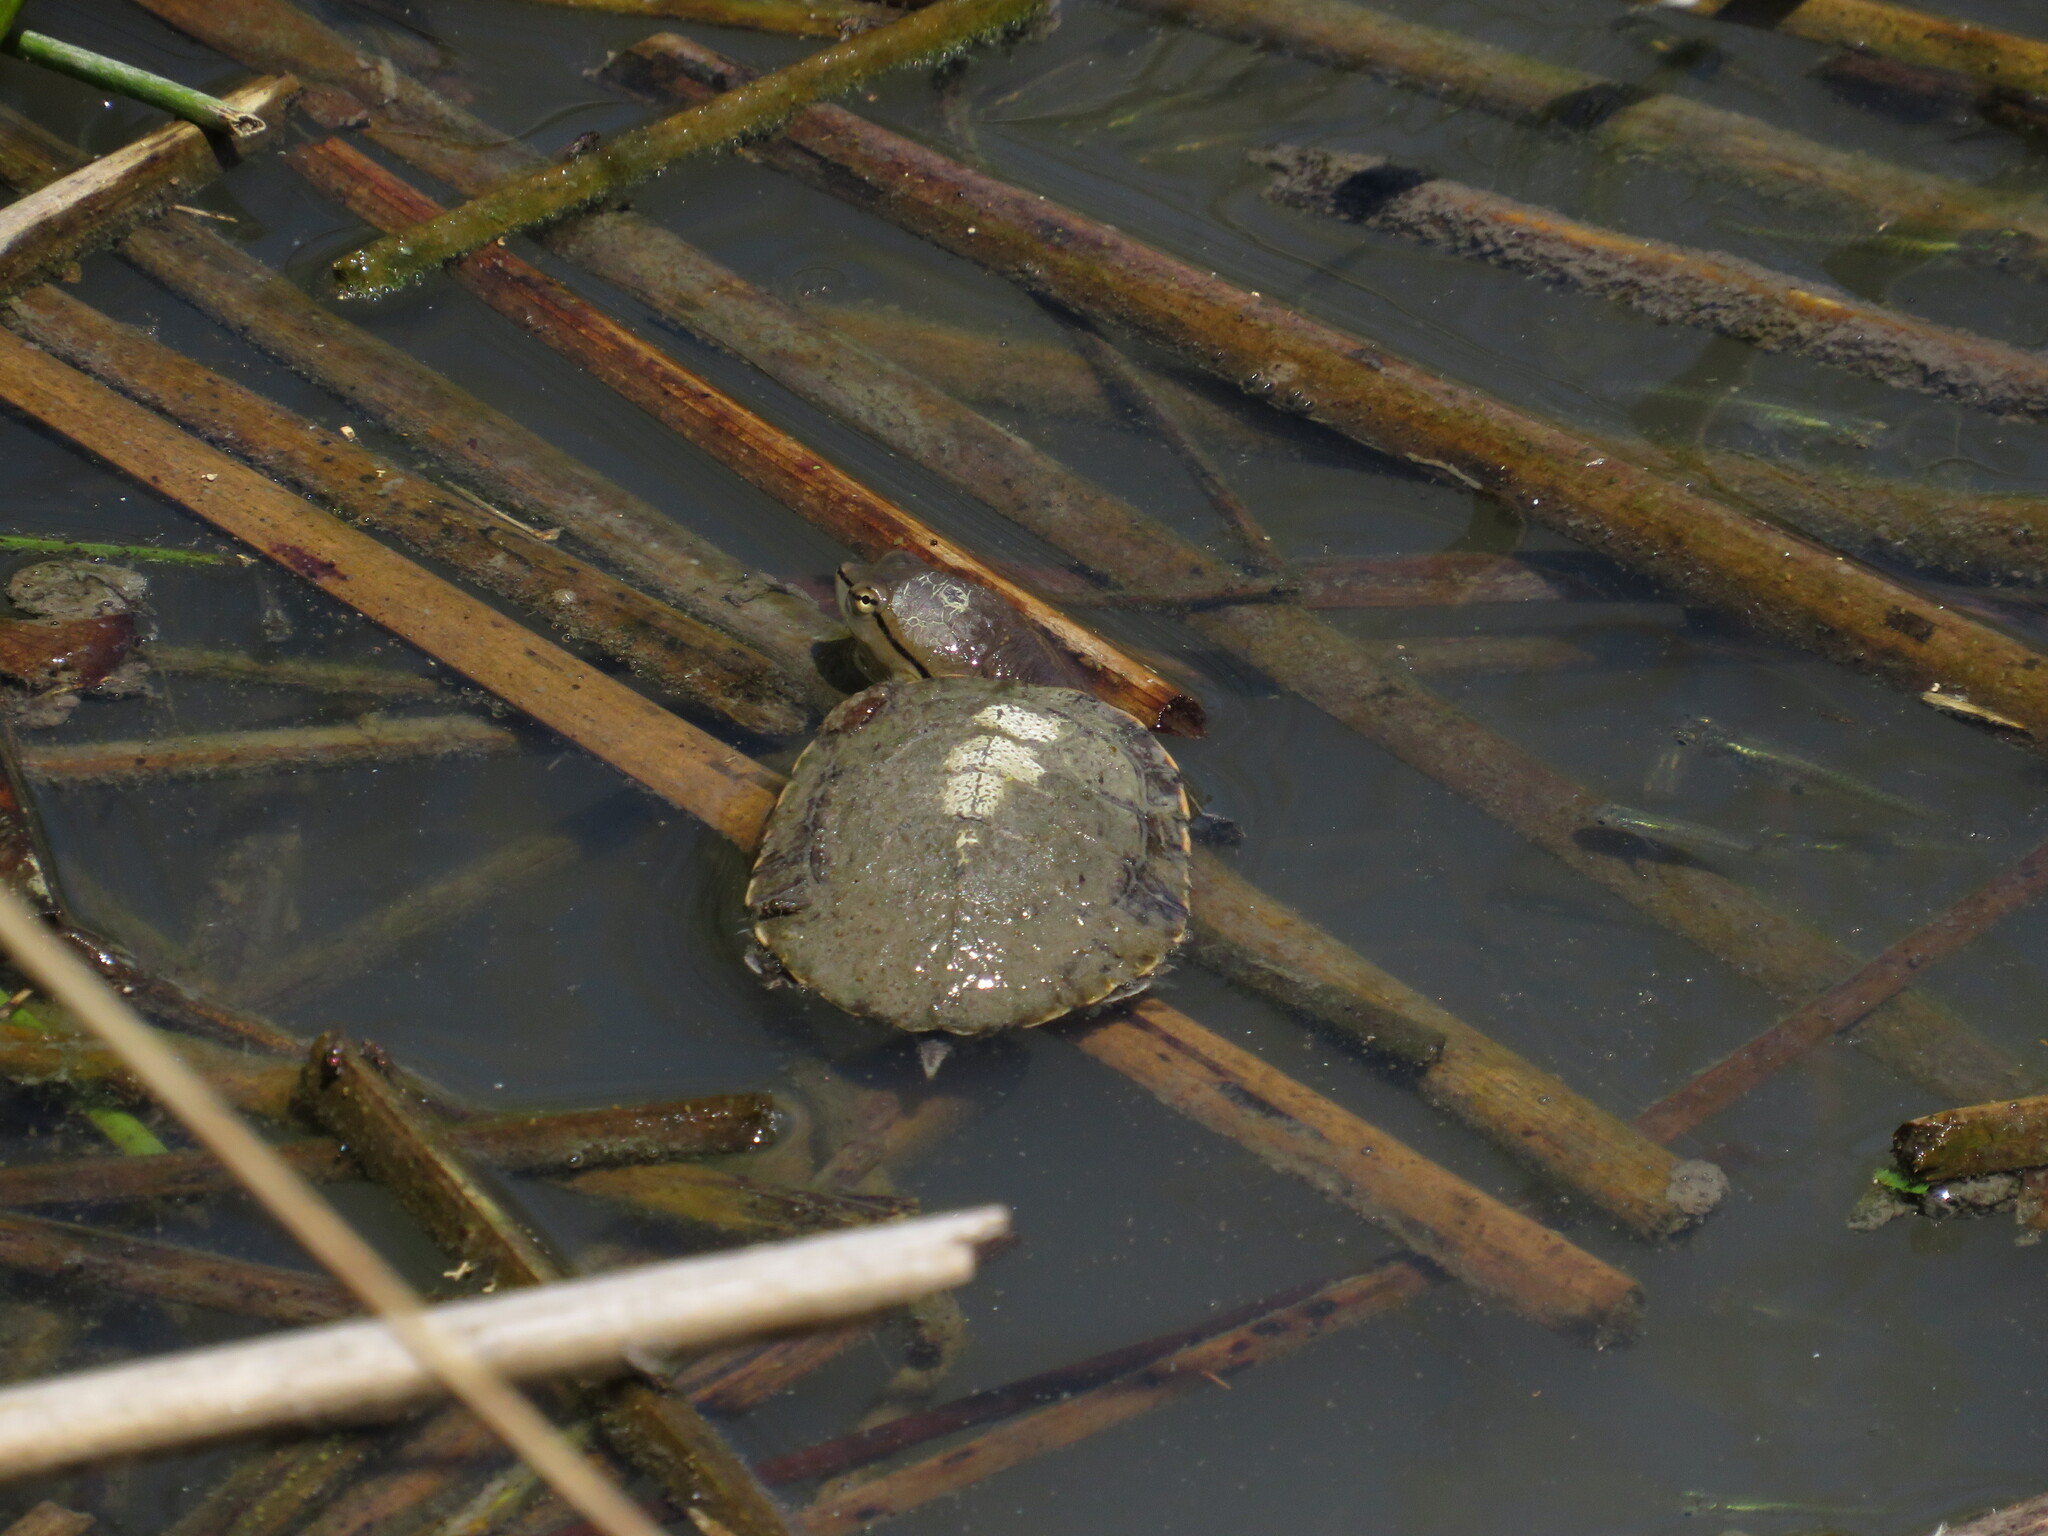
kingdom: Animalia
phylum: Chordata
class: Testudines
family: Chelidae
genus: Phrynops
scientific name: Phrynops hilarii
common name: Side-necked turtle of saint hillaire
